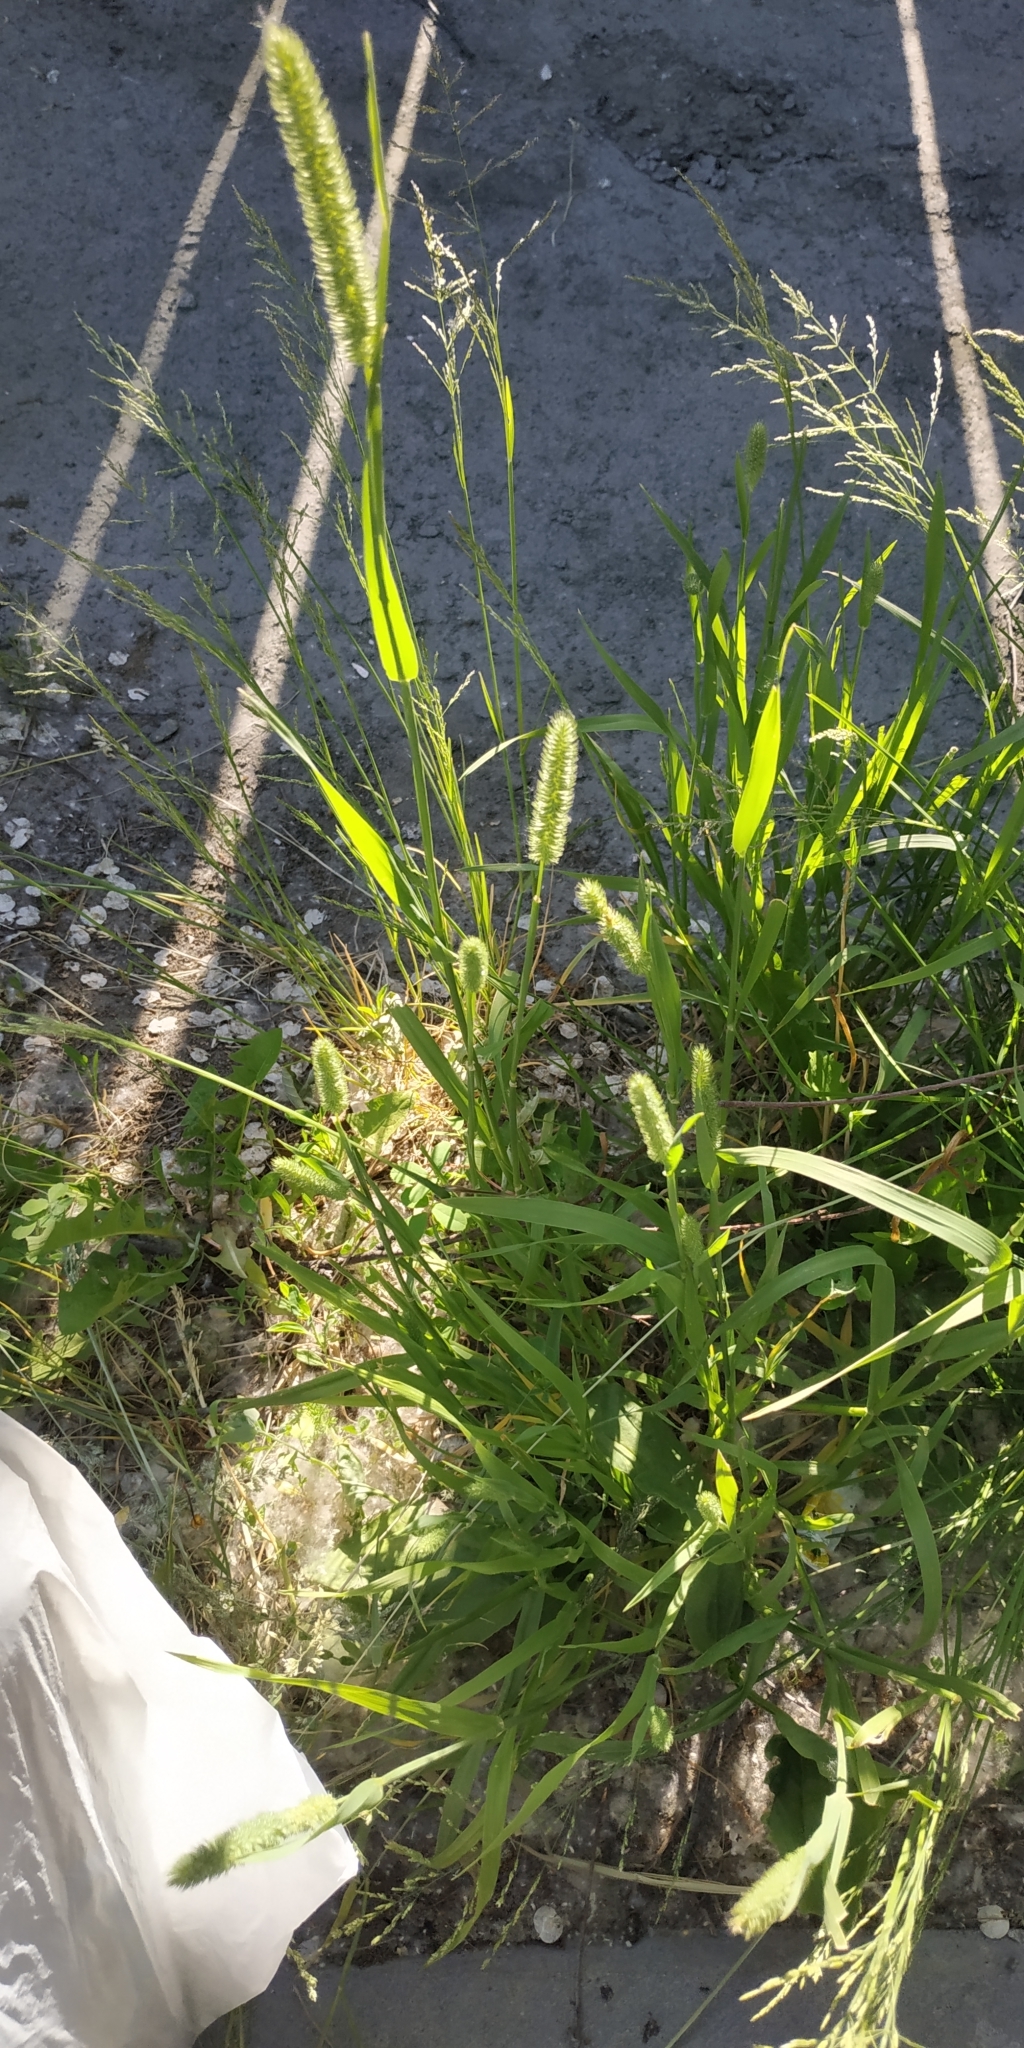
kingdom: Plantae
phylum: Tracheophyta
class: Liliopsida
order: Poales
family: Poaceae
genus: Setaria
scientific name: Setaria viridis
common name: Green bristlegrass
